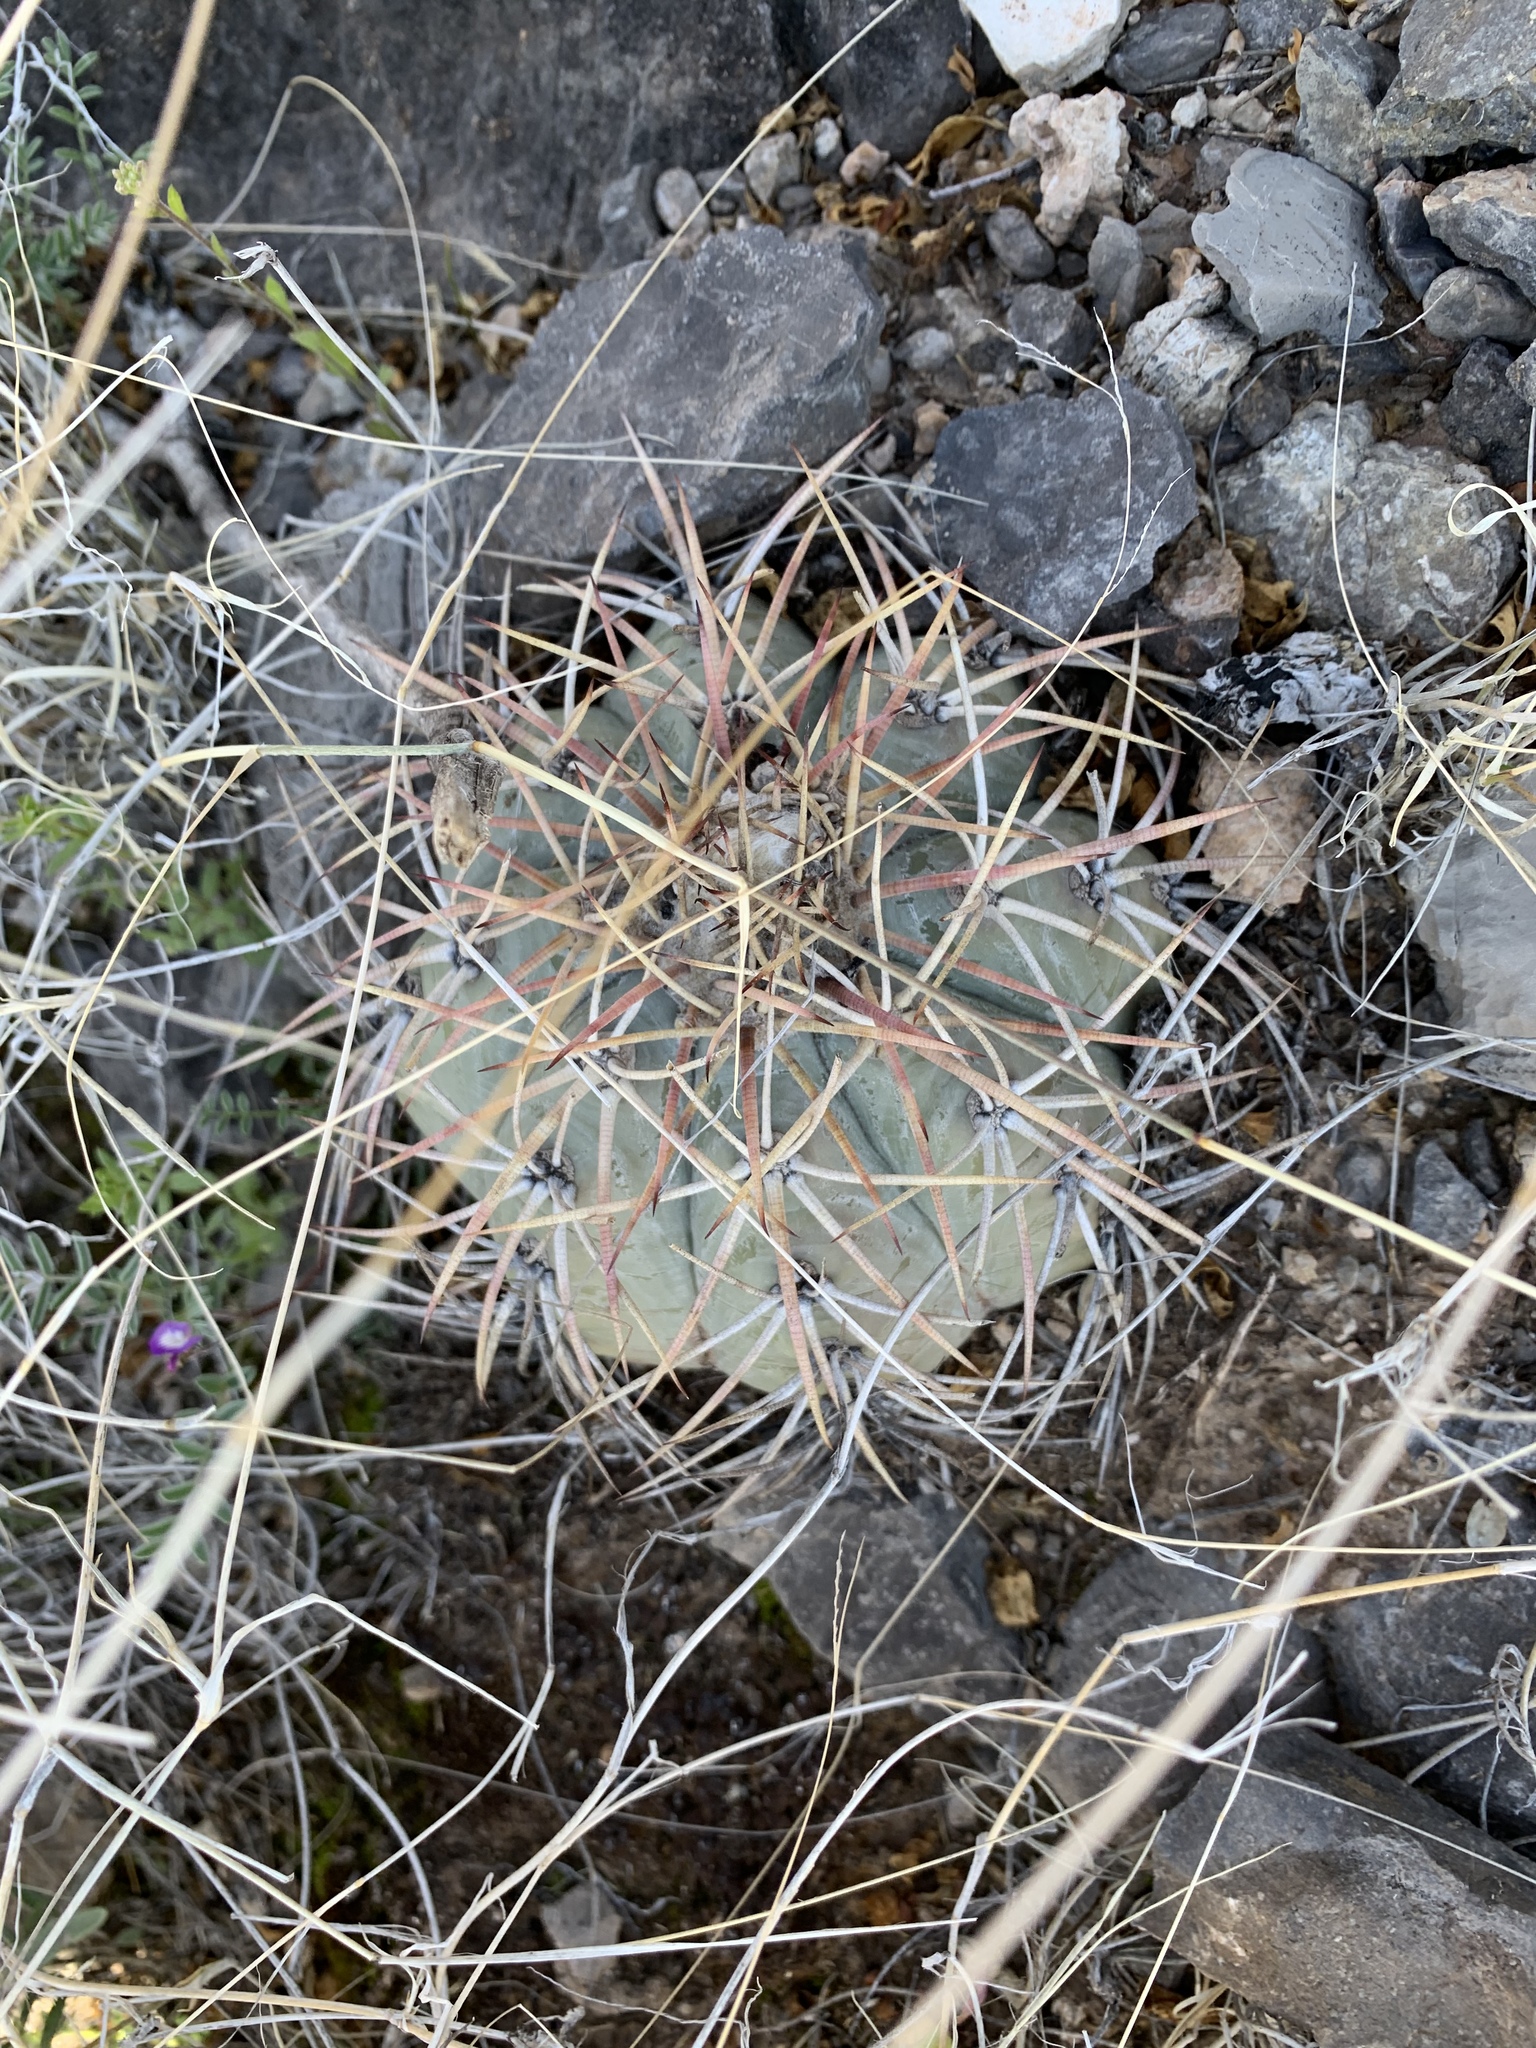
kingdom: Plantae
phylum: Tracheophyta
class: Magnoliopsida
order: Caryophyllales
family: Cactaceae
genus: Echinocactus
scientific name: Echinocactus horizonthalonius
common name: Devilshead
